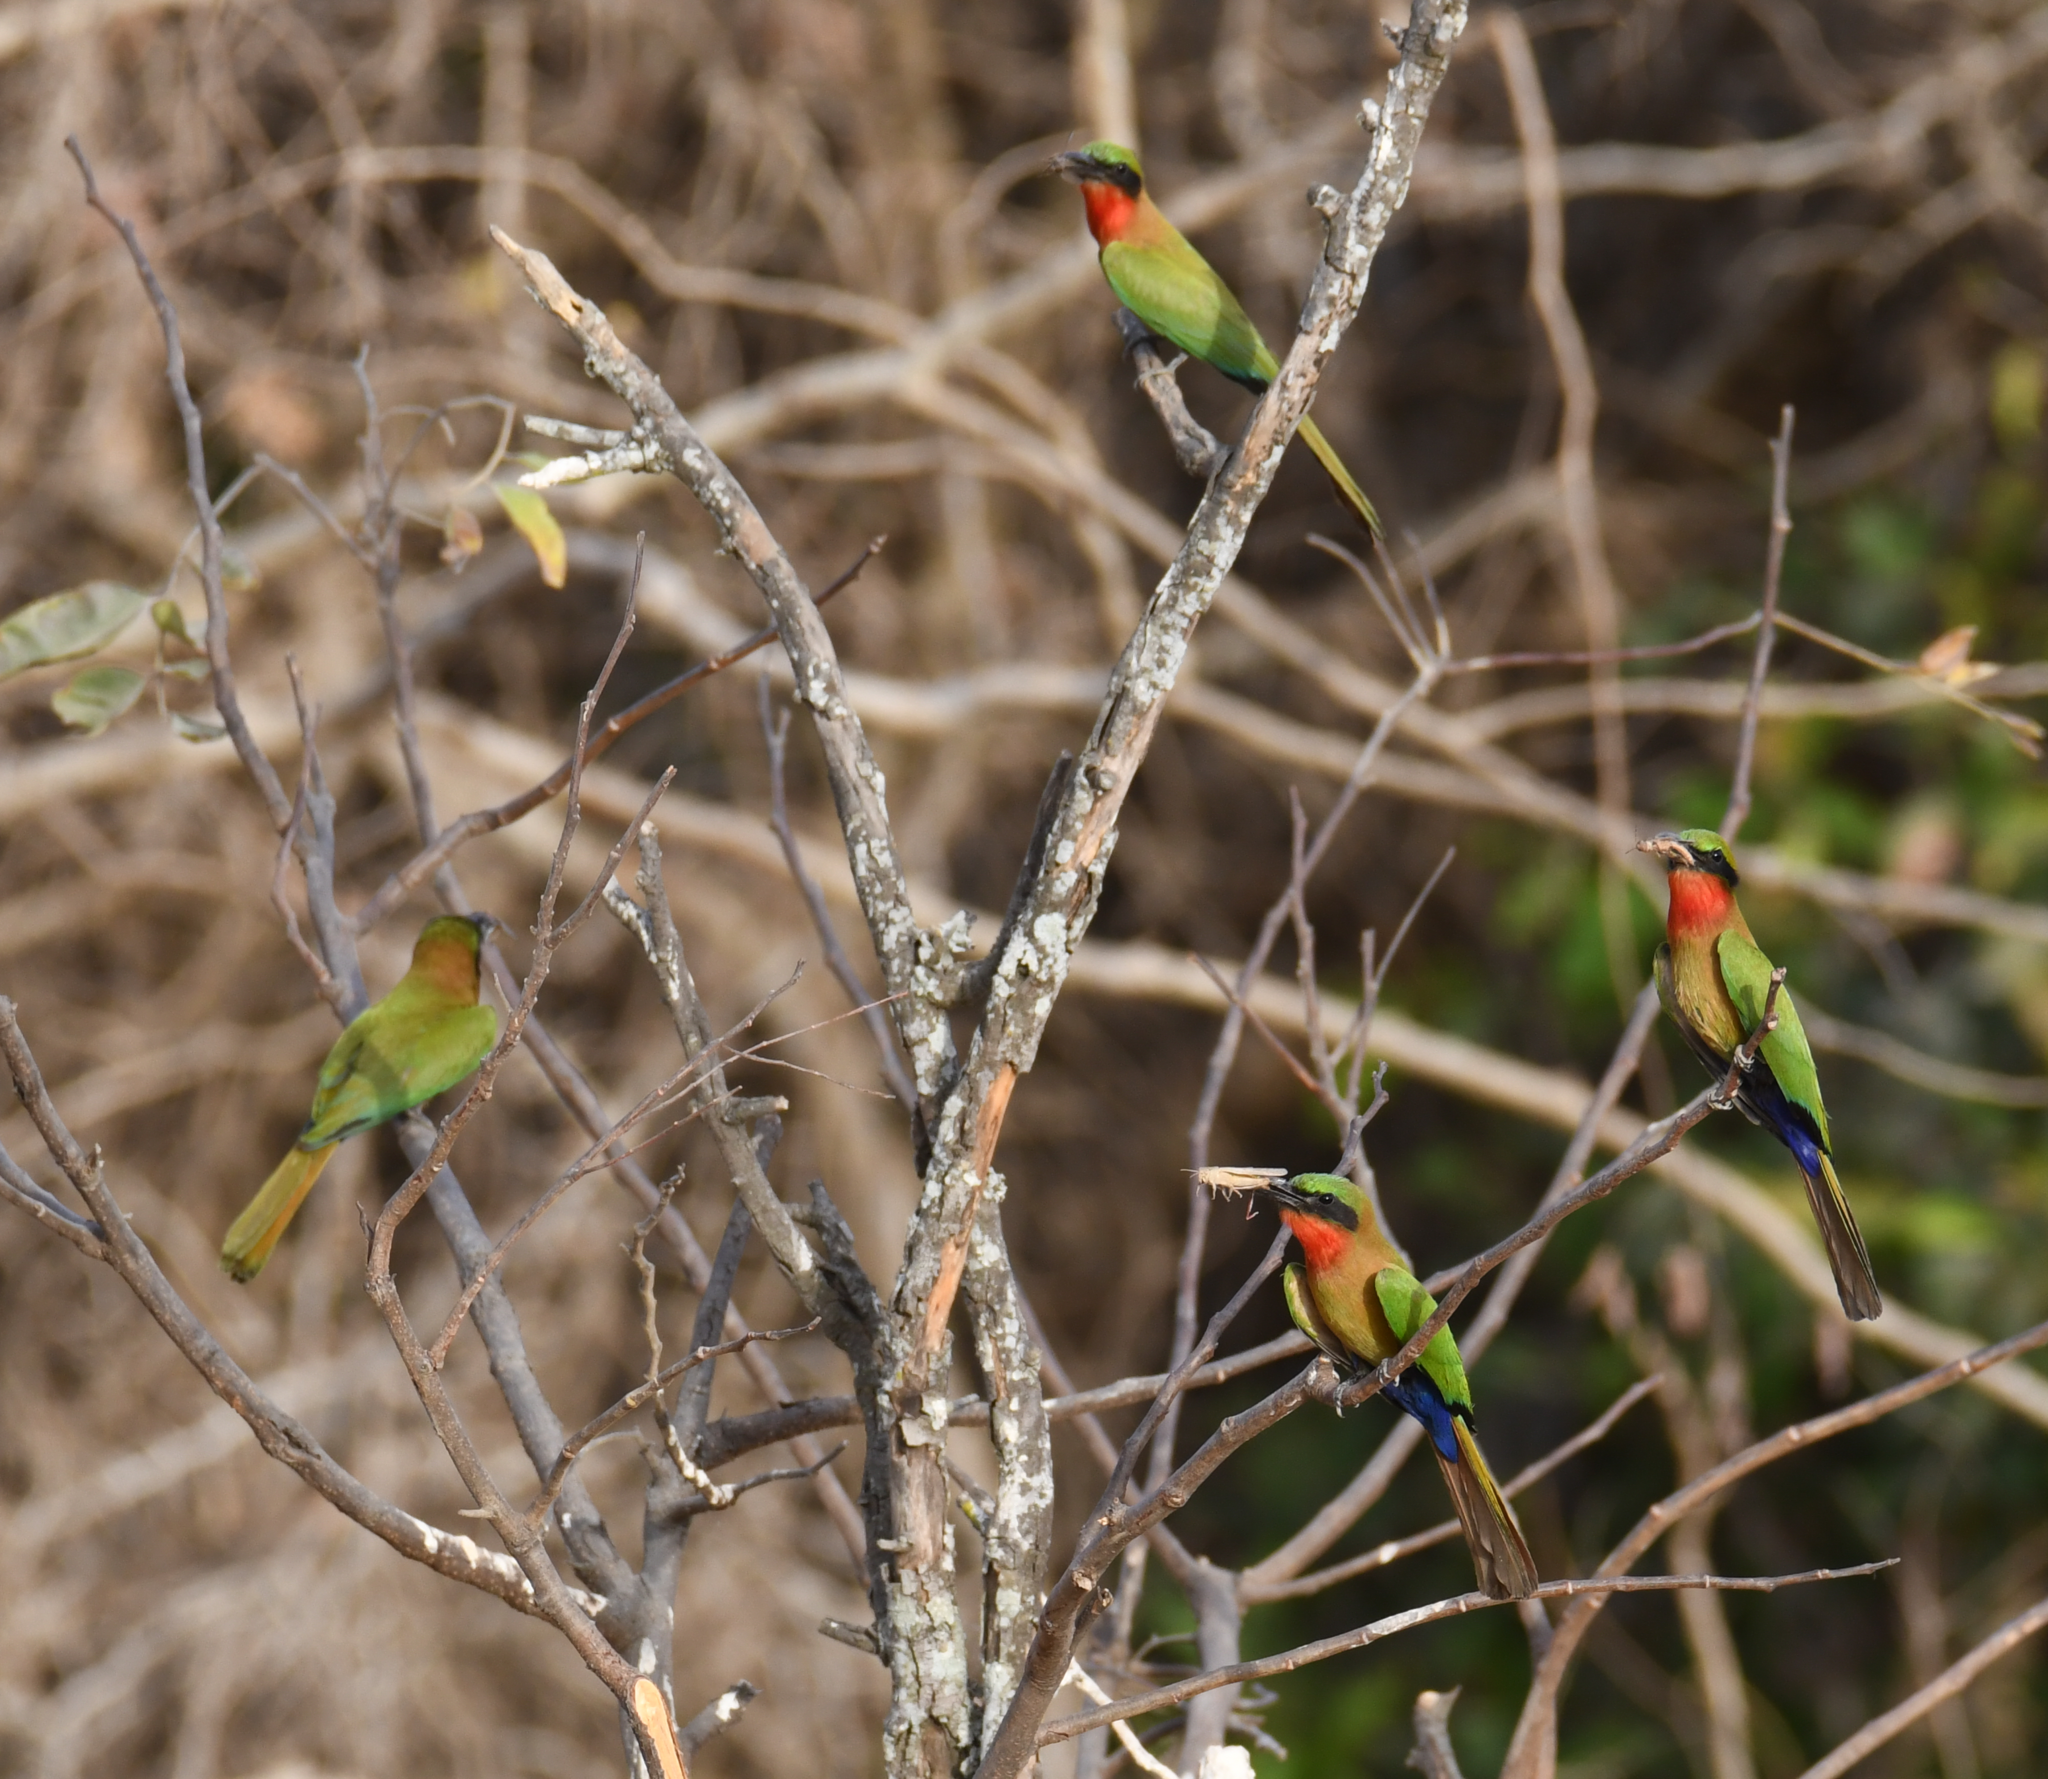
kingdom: Animalia
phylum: Chordata
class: Aves
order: Coraciiformes
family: Meropidae
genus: Merops
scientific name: Merops bulocki
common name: Red-throated bee-eater
